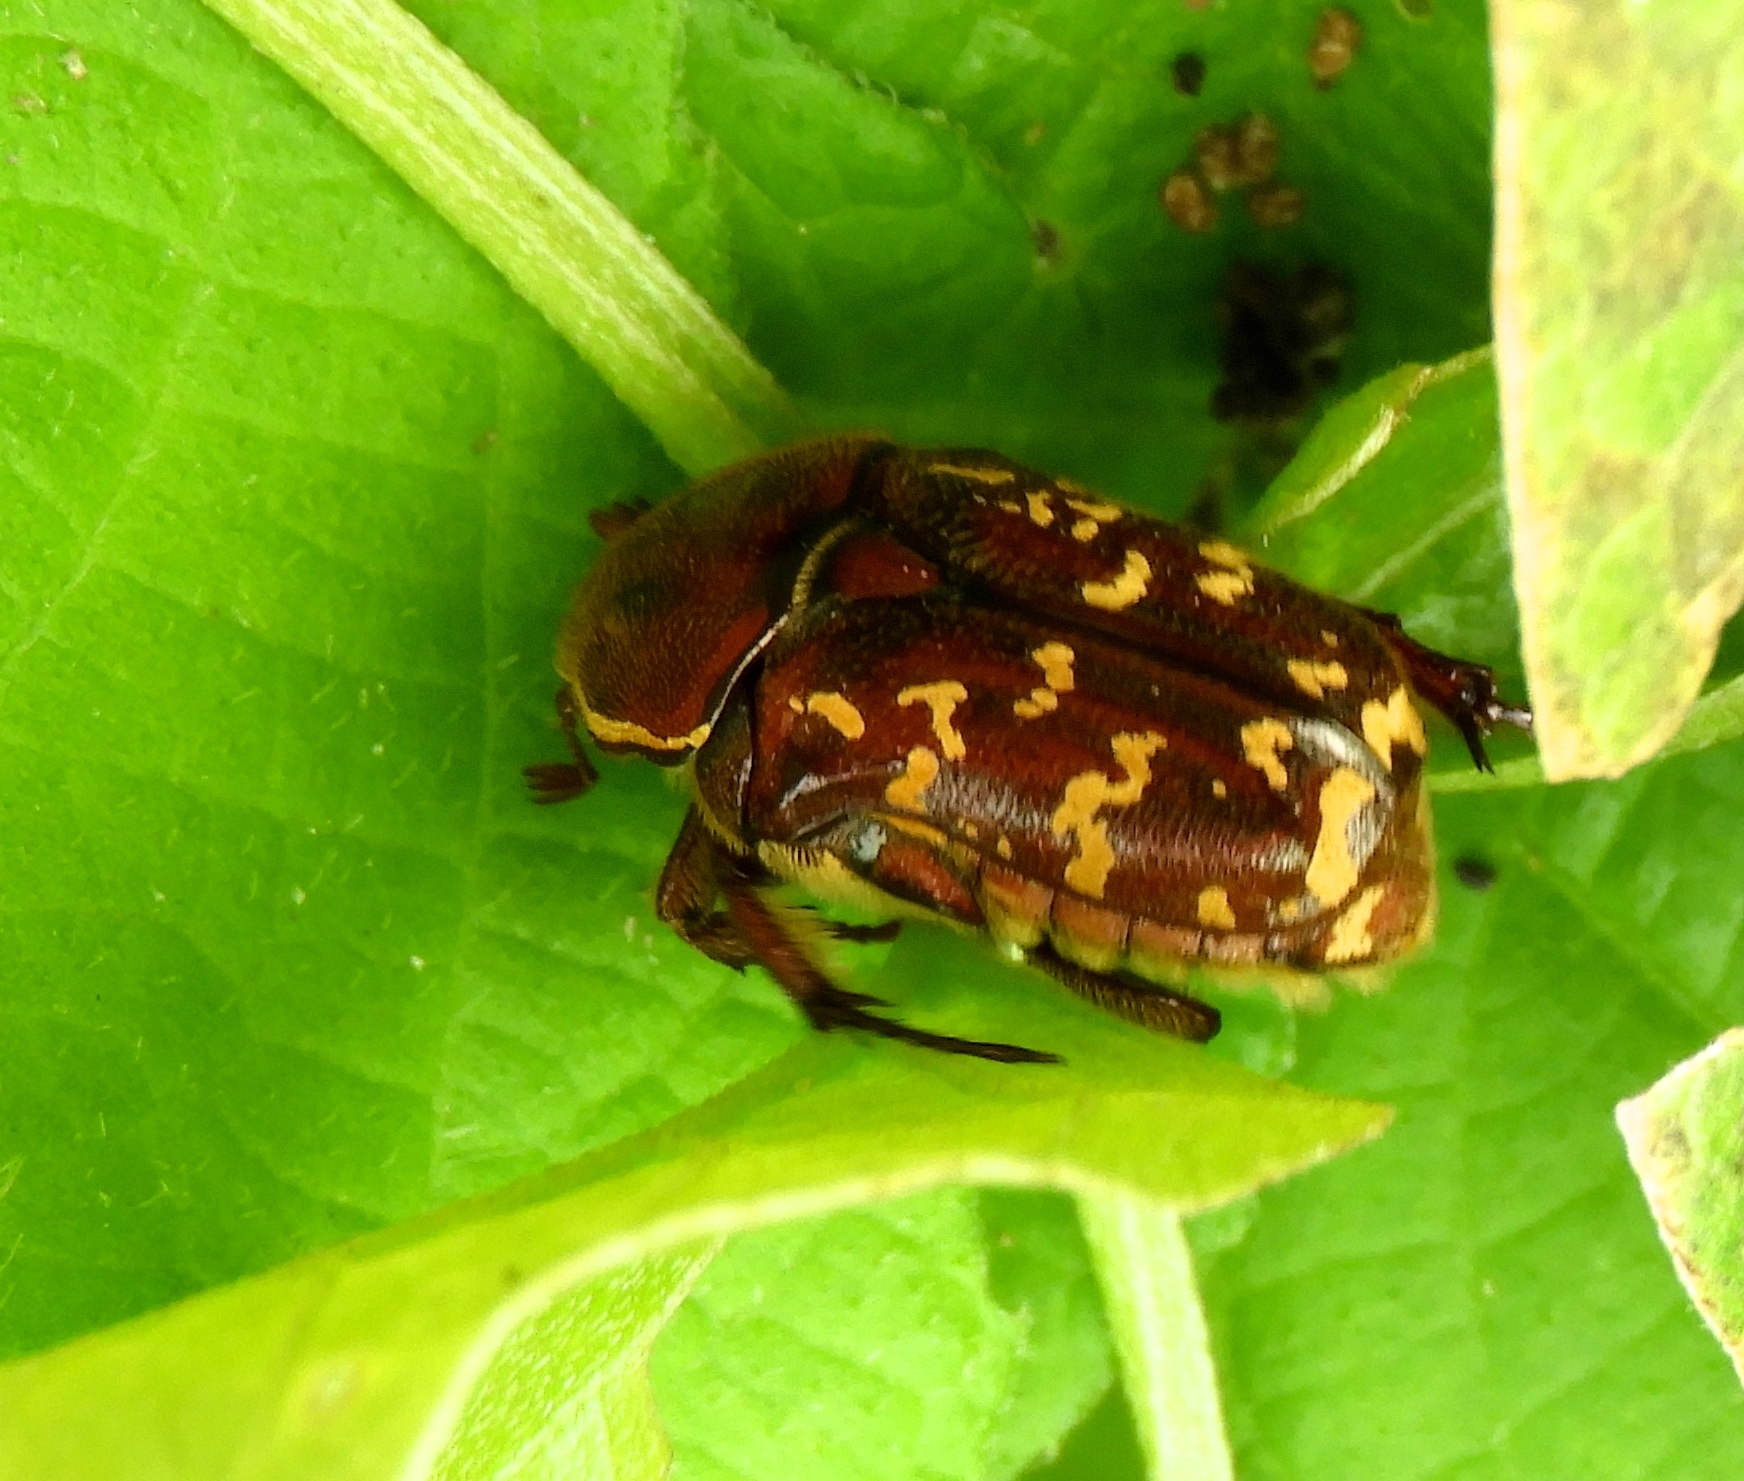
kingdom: Animalia
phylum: Arthropoda
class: Insecta
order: Coleoptera
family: Scarabaeidae
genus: Euphoria
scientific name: Euphoria leucographa
